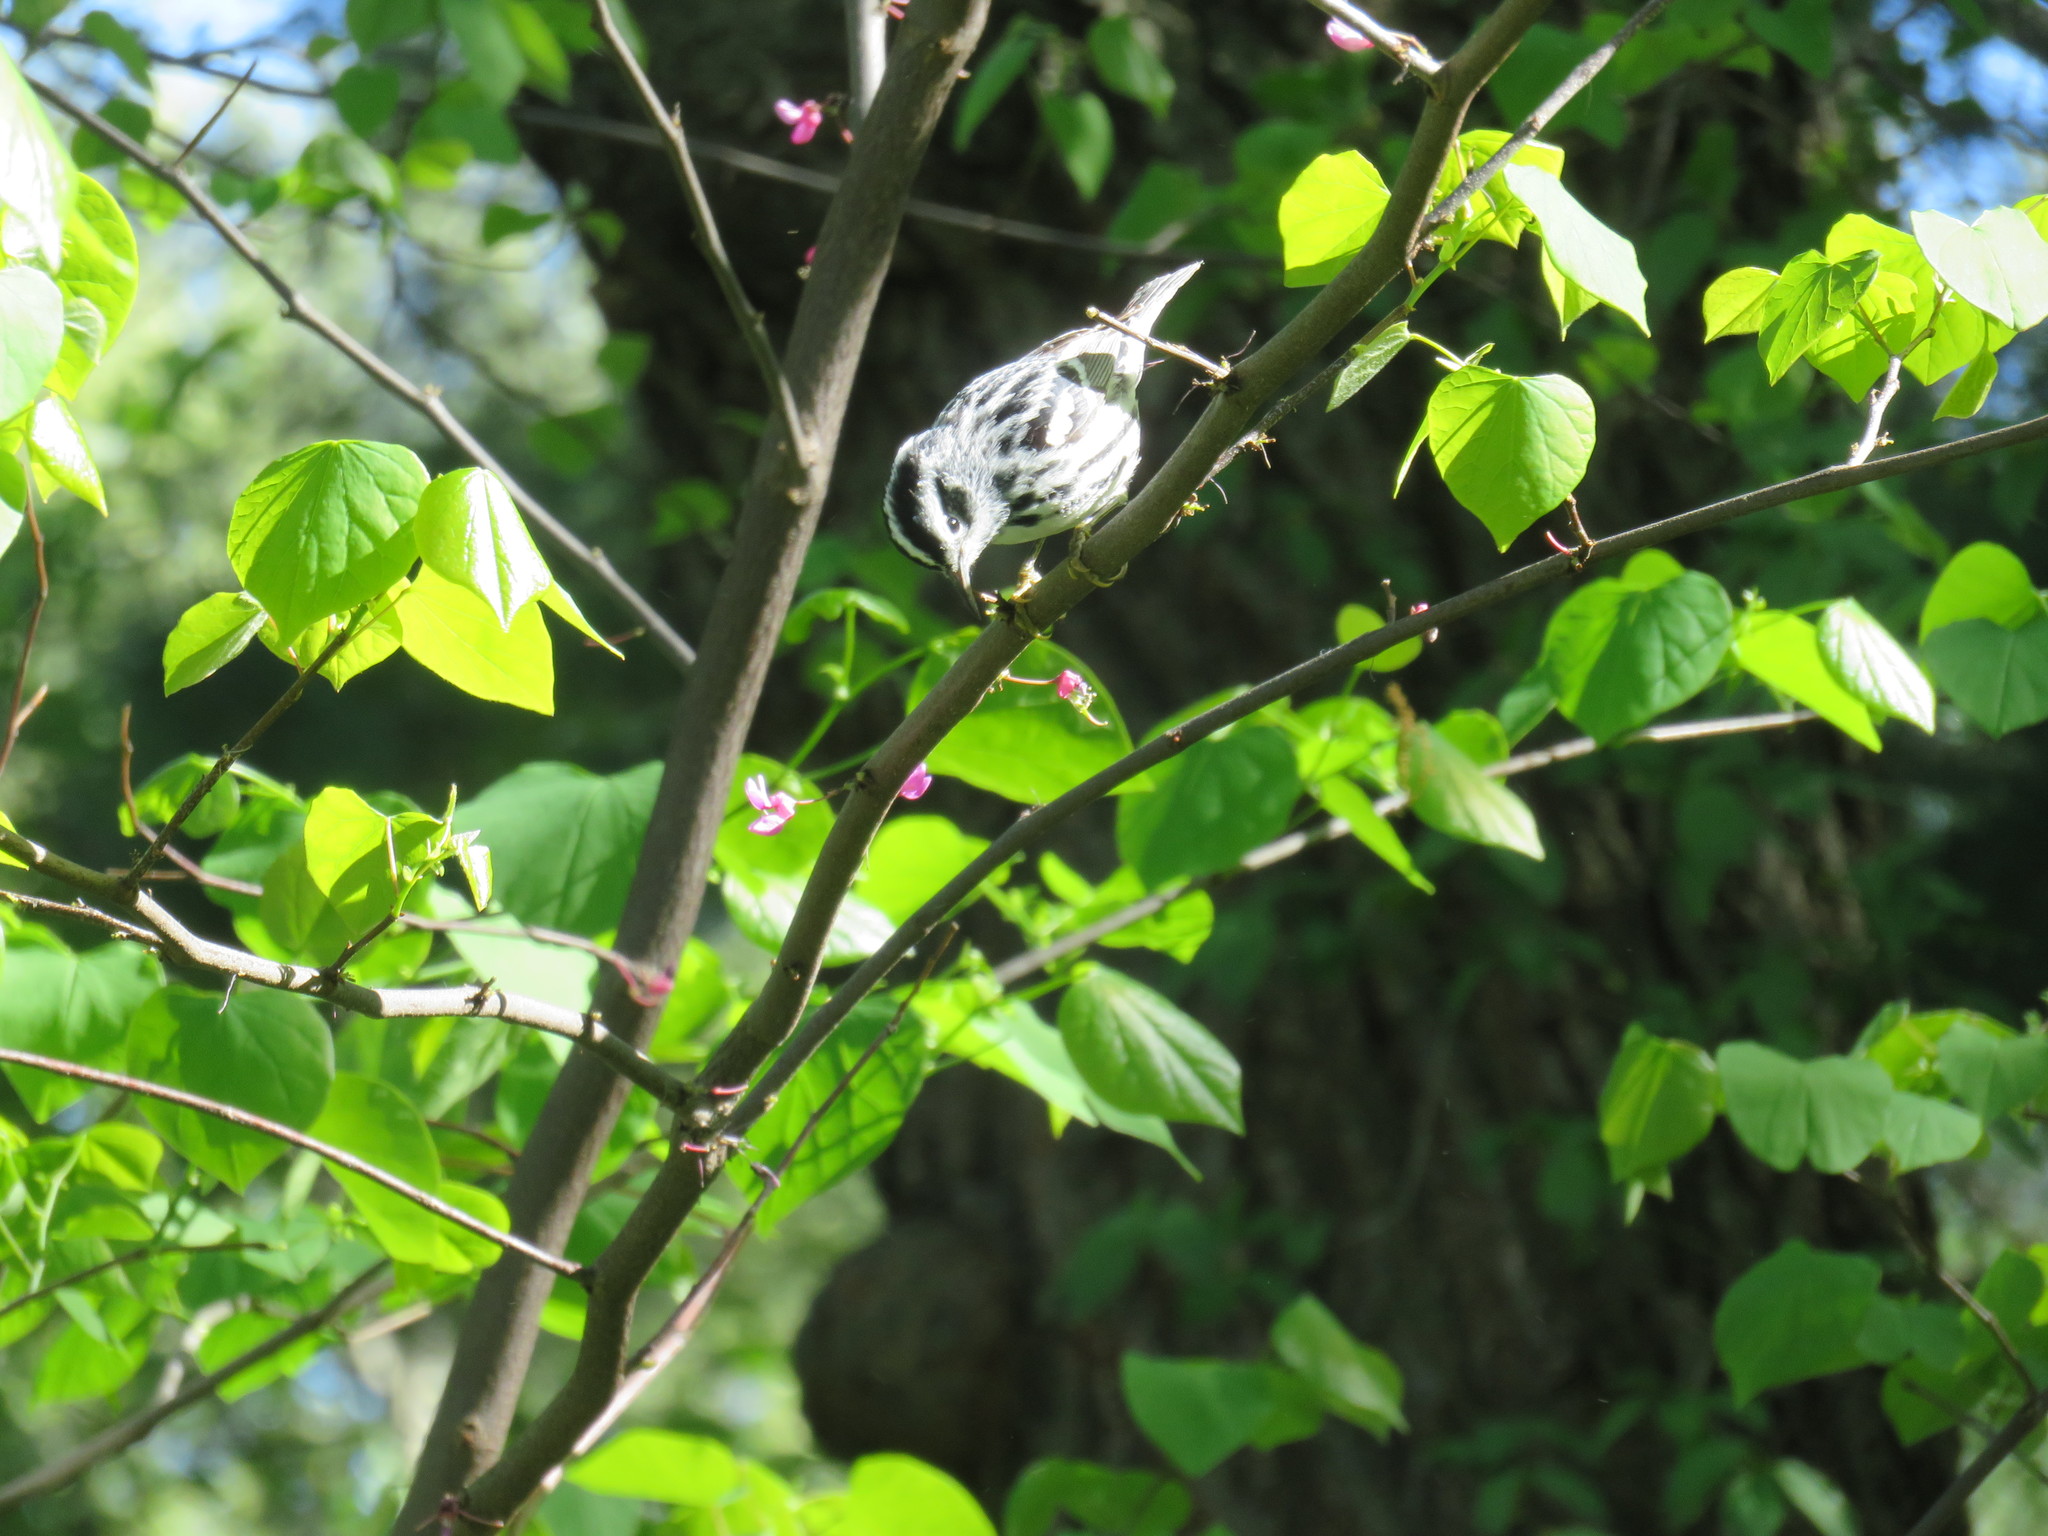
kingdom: Animalia
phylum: Chordata
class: Aves
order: Passeriformes
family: Parulidae
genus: Mniotilta
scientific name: Mniotilta varia
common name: Black-and-white warbler
